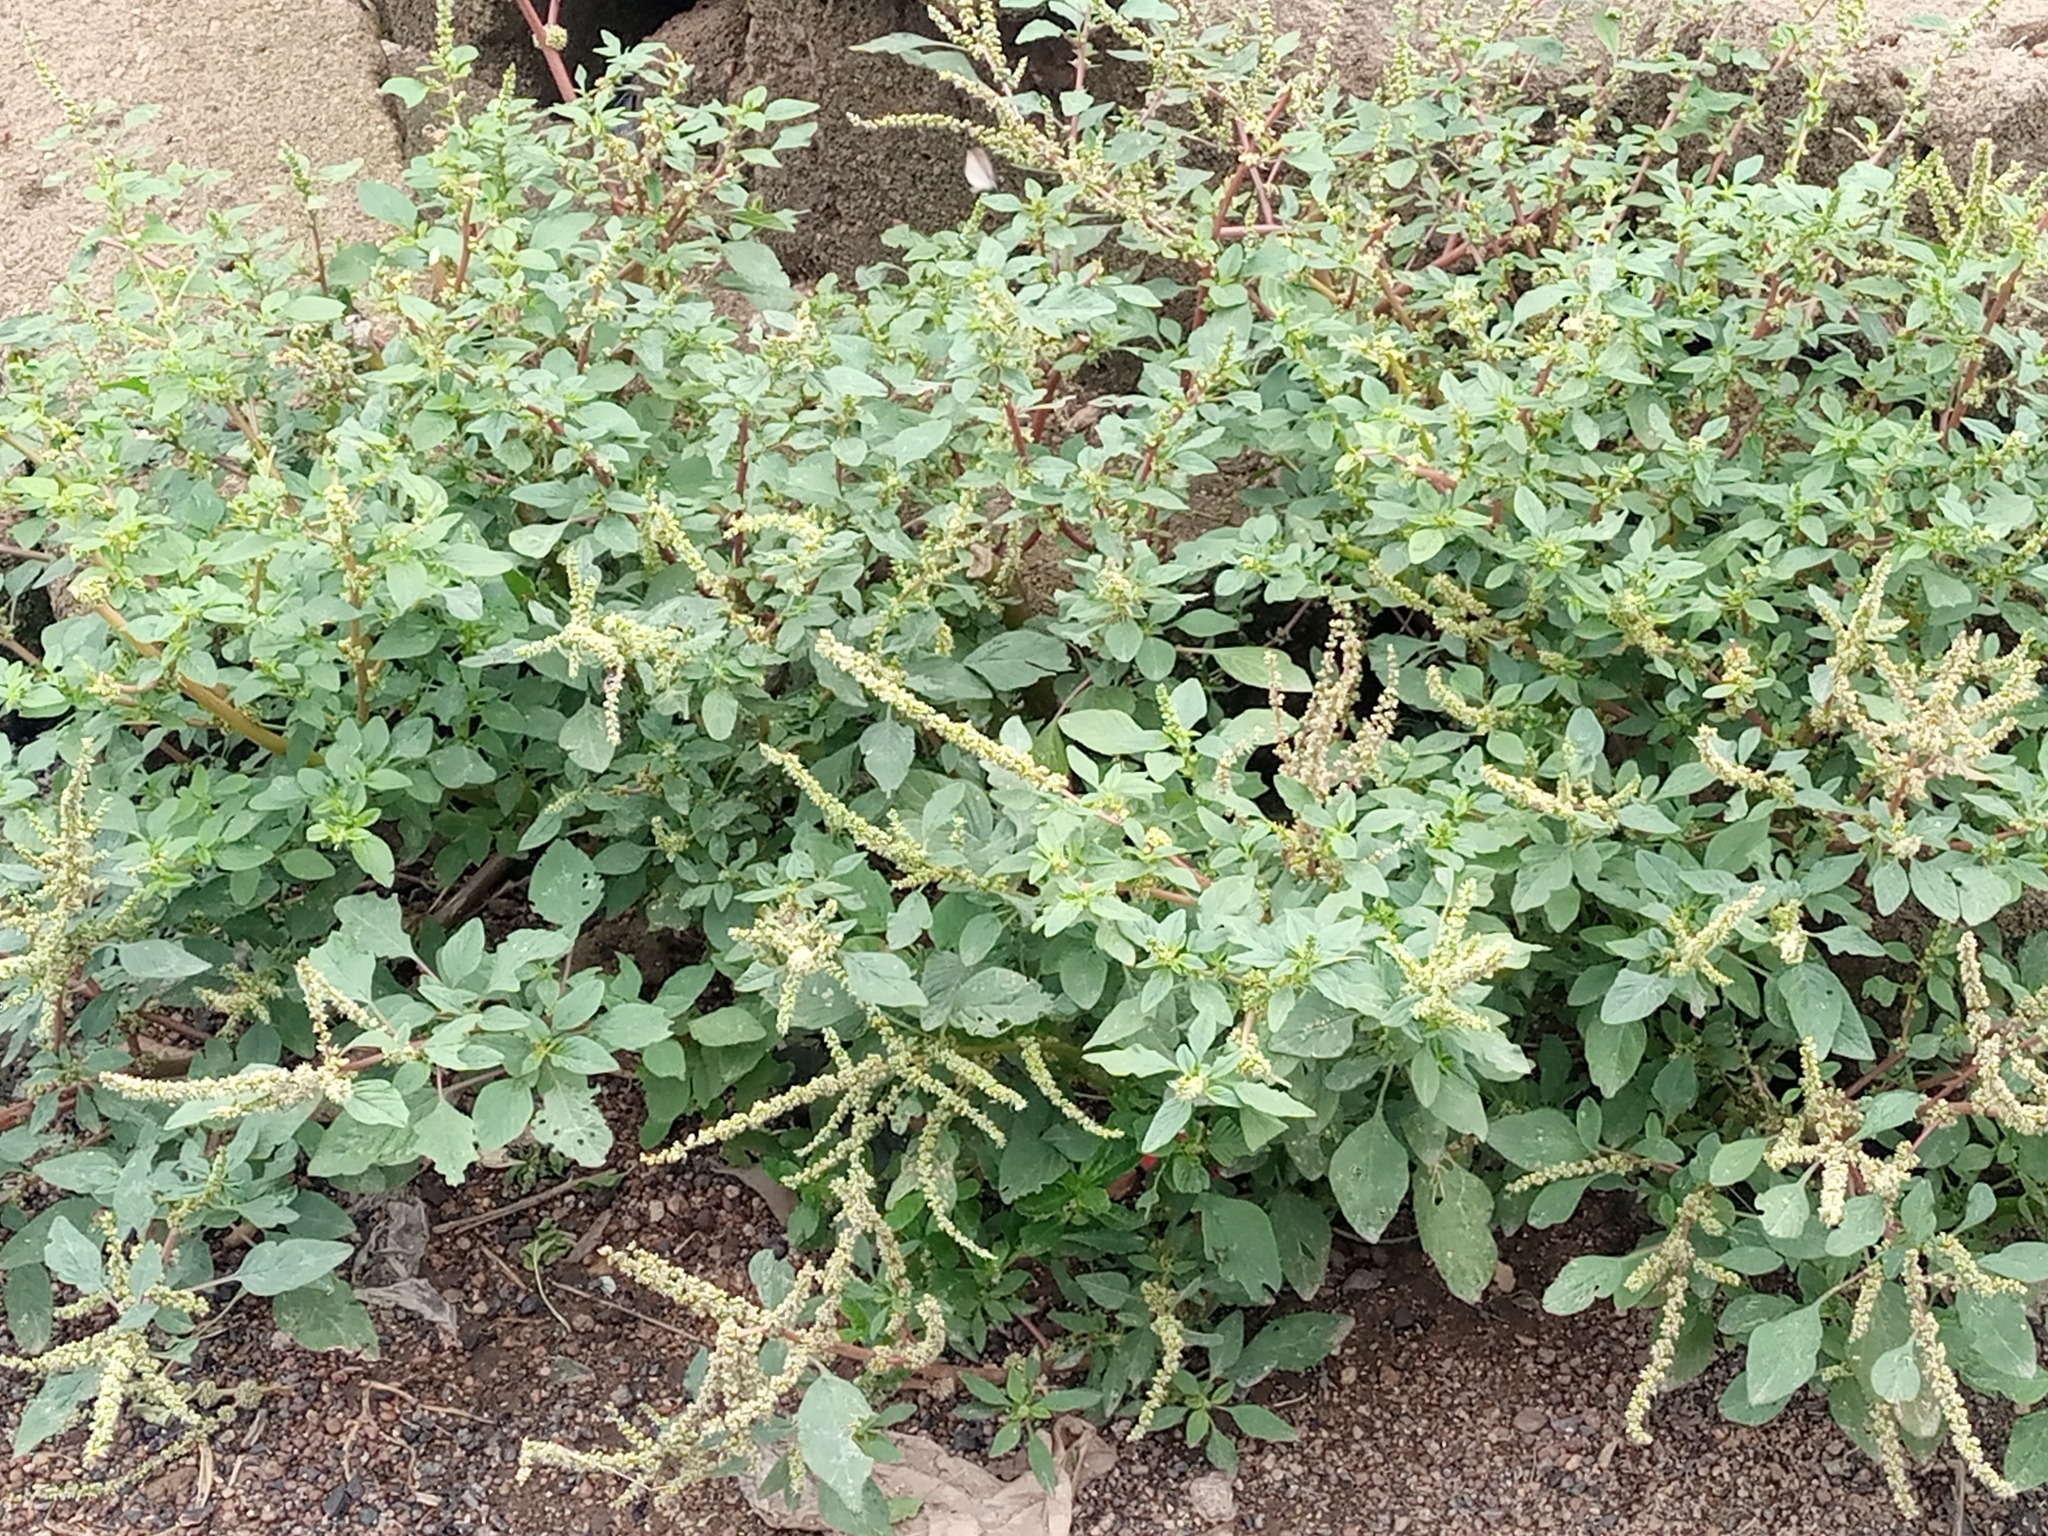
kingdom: Plantae
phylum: Tracheophyta
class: Magnoliopsida
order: Caryophyllales
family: Amaranthaceae
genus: Amaranthus
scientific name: Amaranthus blitum
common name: Purple amaranth
